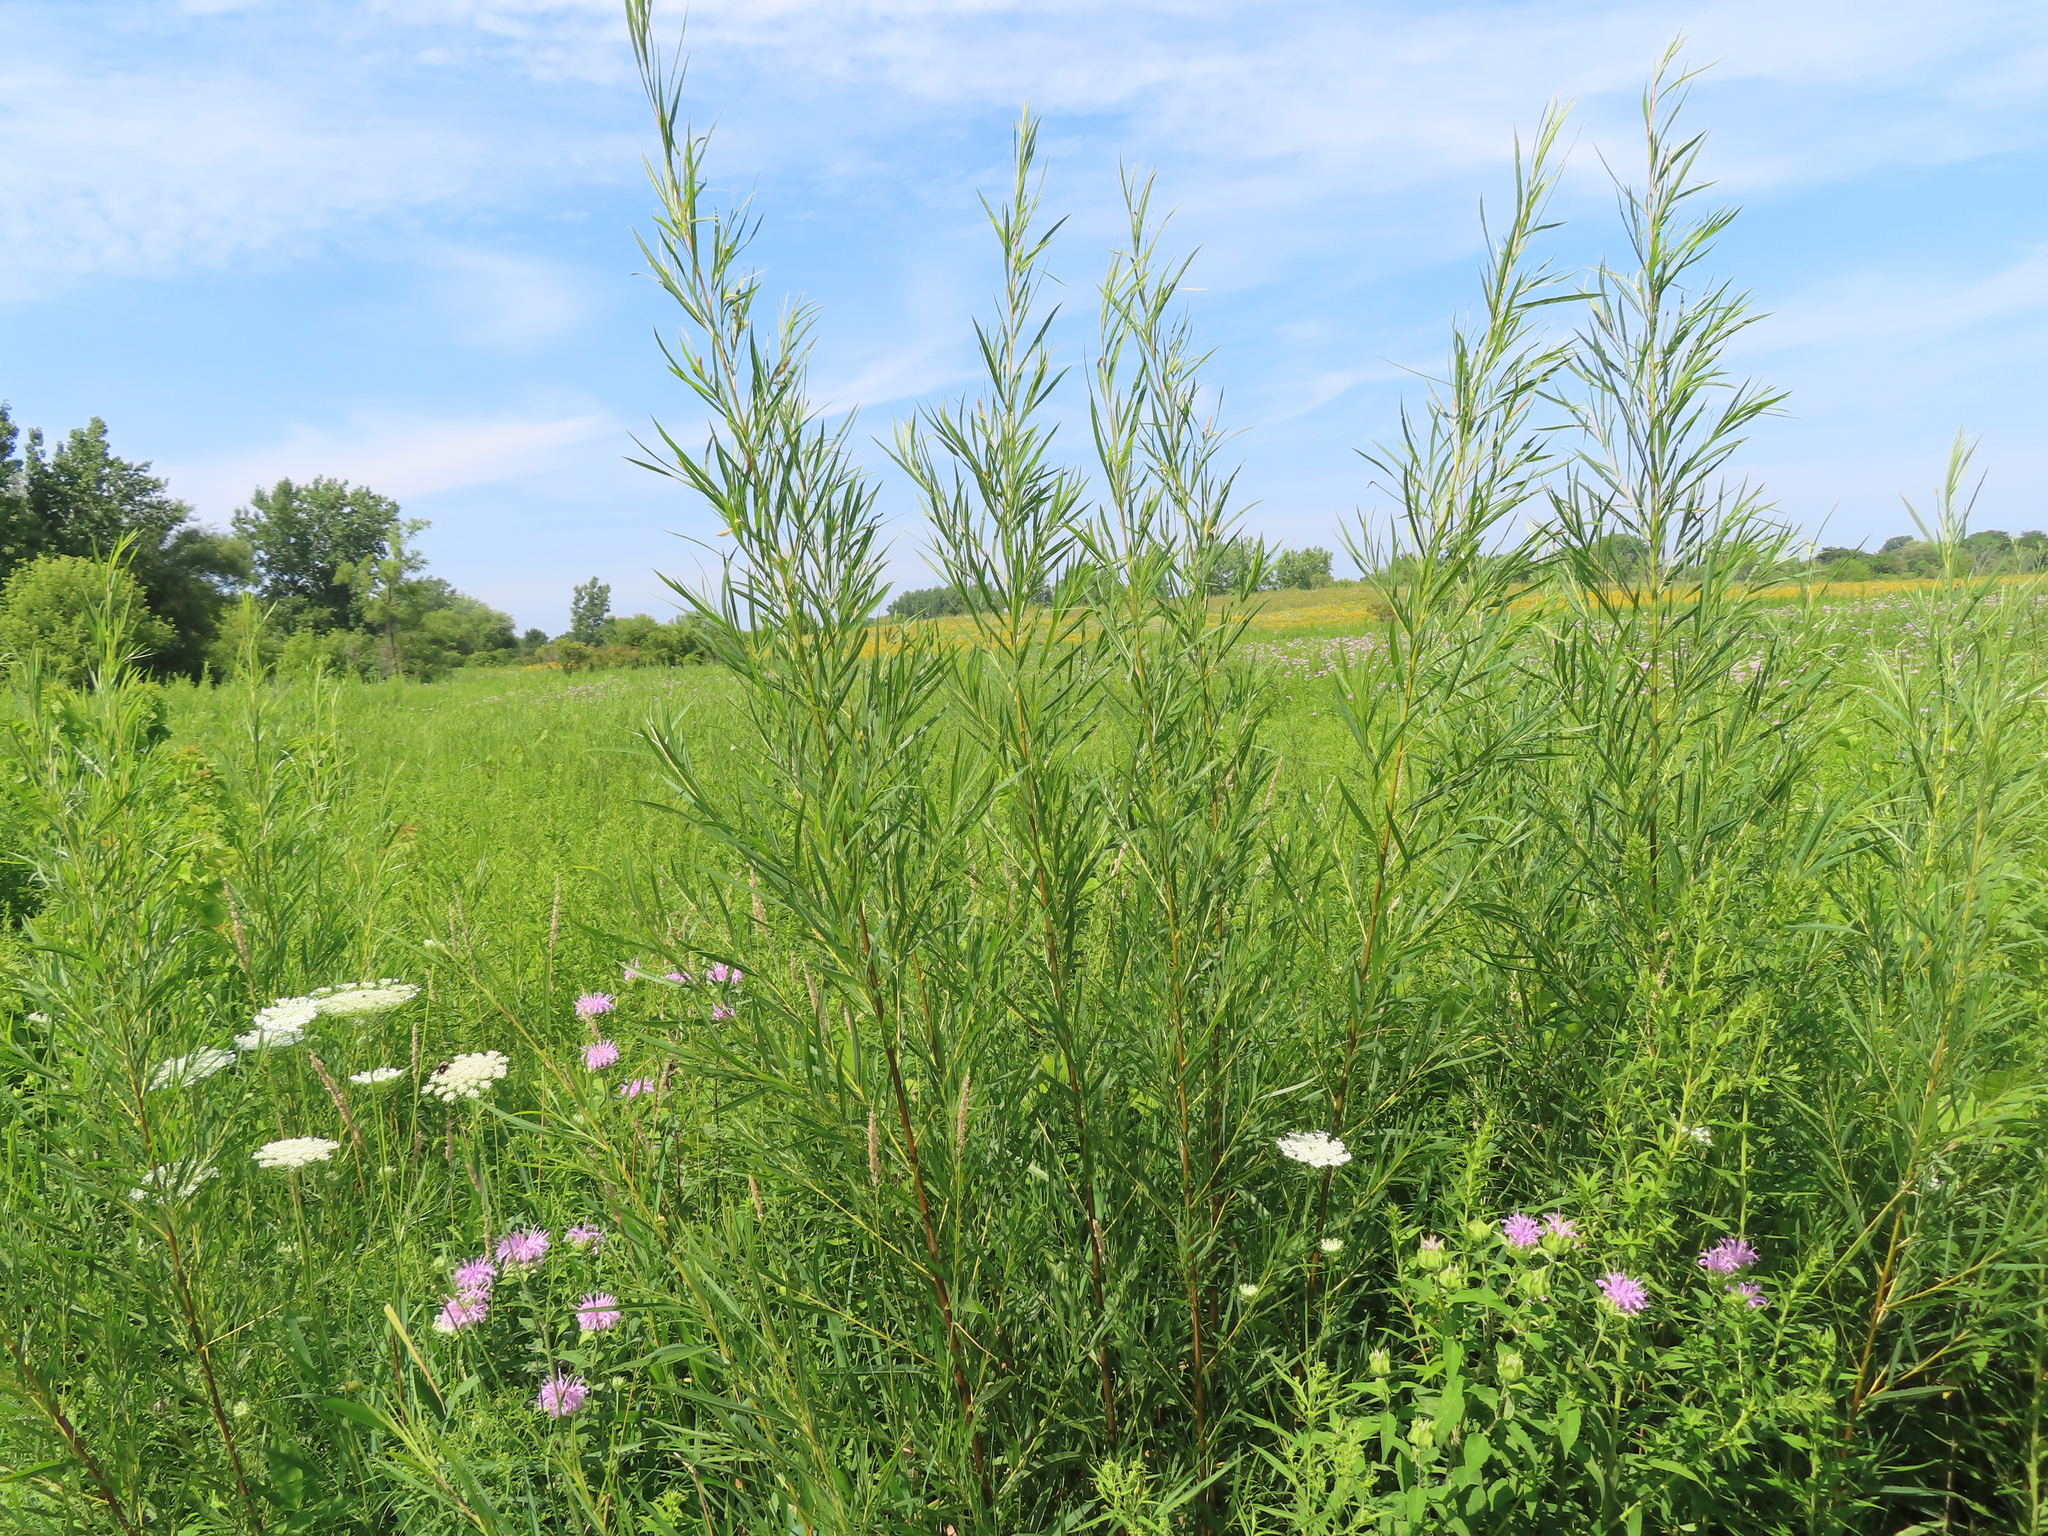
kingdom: Plantae
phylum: Tracheophyta
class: Magnoliopsida
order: Malpighiales
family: Salicaceae
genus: Salix
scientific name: Salix interior
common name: Sandbar willow
